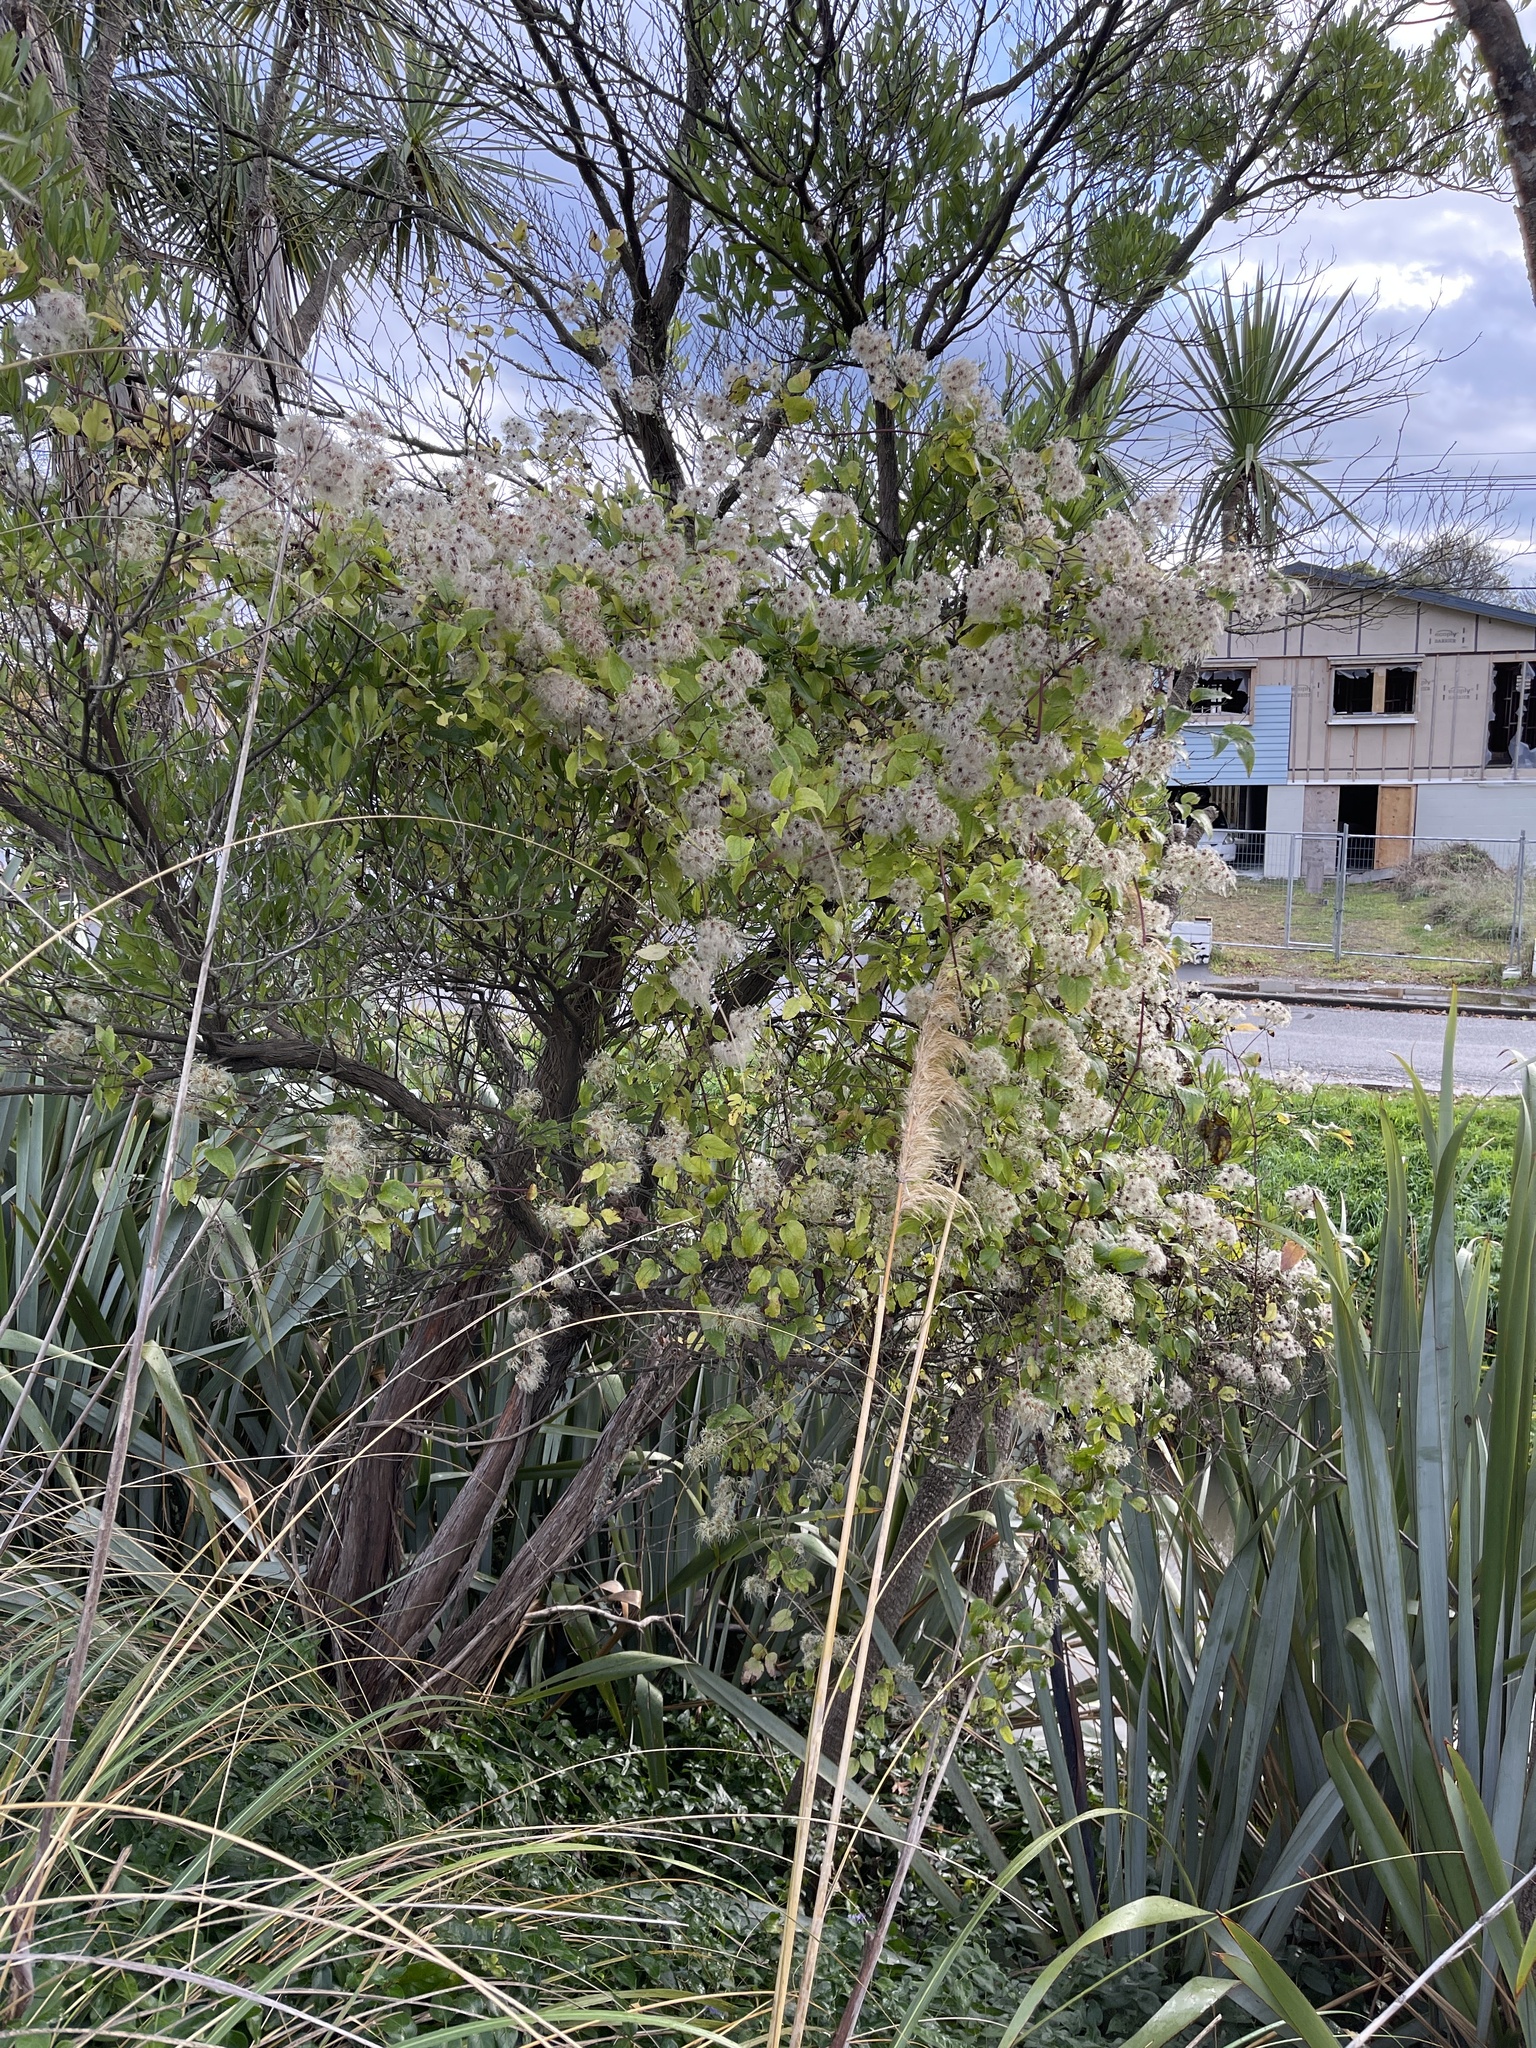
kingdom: Plantae
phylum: Tracheophyta
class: Magnoliopsida
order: Ranunculales
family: Ranunculaceae
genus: Clematis
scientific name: Clematis vitalba
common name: Evergreen clematis
